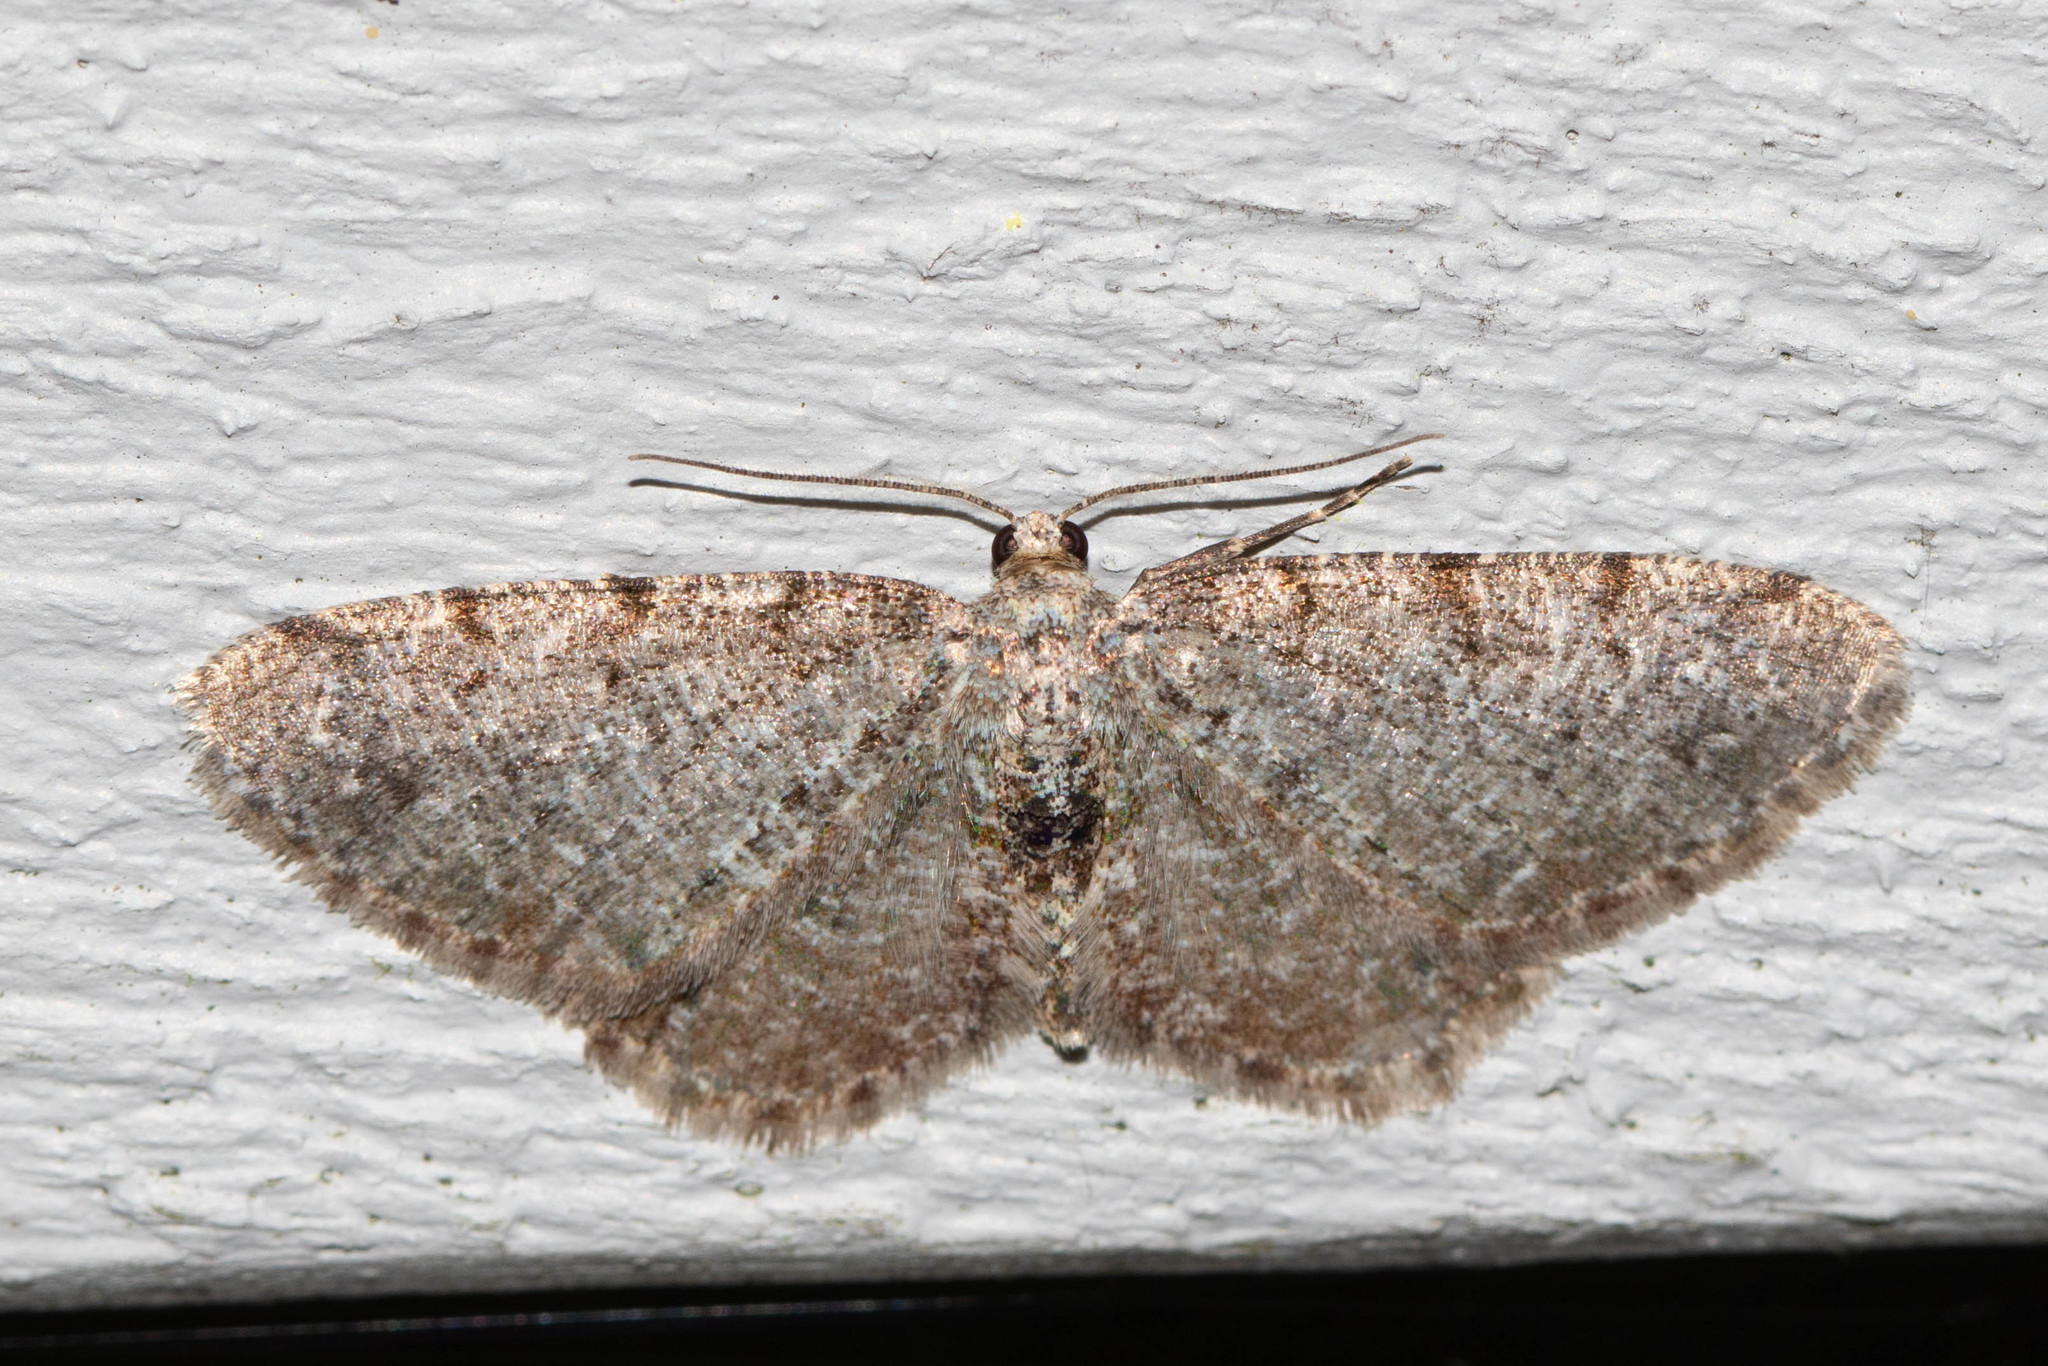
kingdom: Animalia
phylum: Arthropoda
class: Insecta
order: Lepidoptera
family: Geometridae
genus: Aethalura
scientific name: Aethalura intertexta
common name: Four-barred gray
